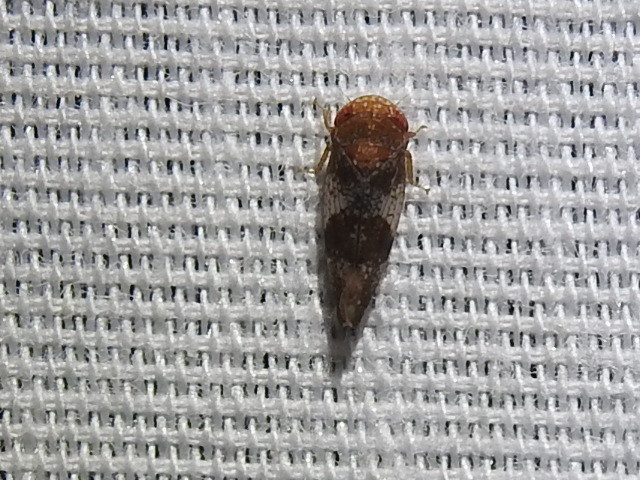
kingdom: Animalia
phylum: Arthropoda
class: Insecta
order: Hemiptera
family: Cicadellidae
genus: Norvellina
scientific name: Norvellina helenae
